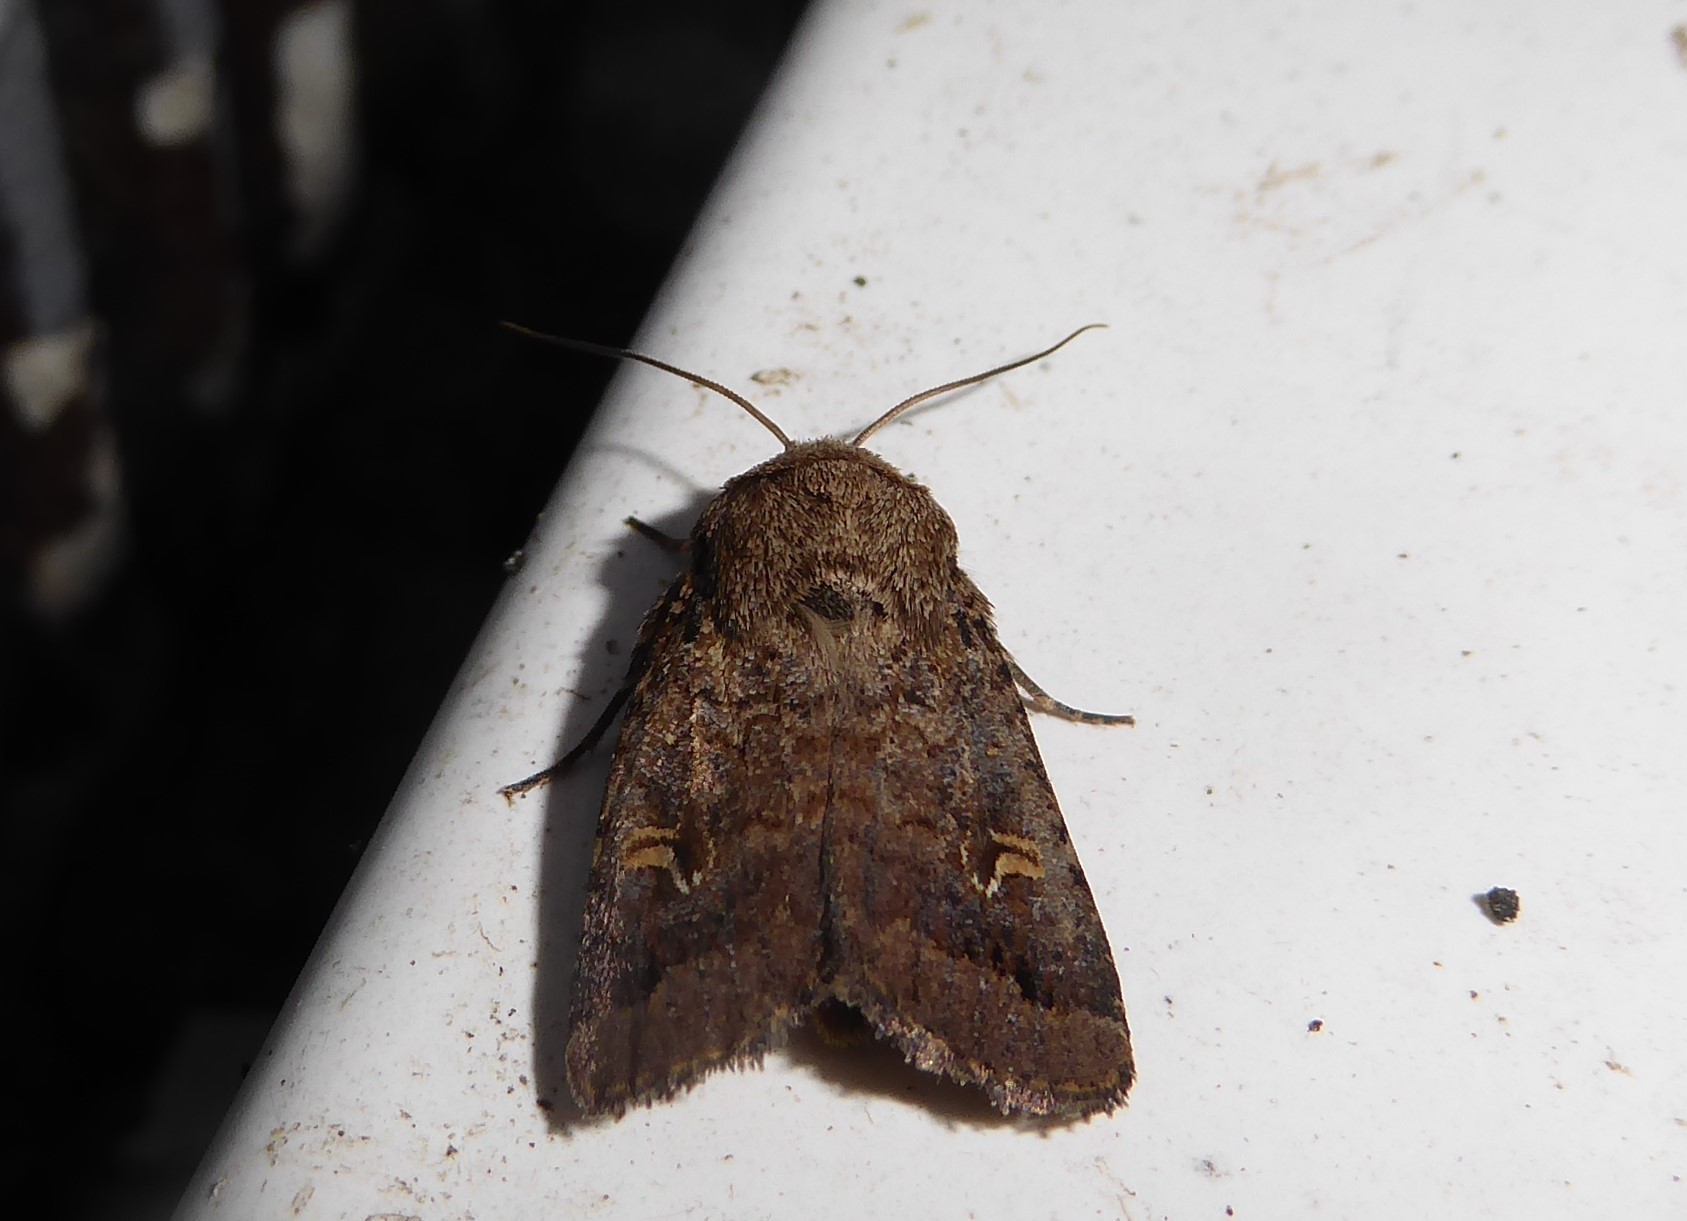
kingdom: Animalia
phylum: Arthropoda
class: Insecta
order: Lepidoptera
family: Noctuidae
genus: Proteuxoa
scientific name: Proteuxoa tetronycha
